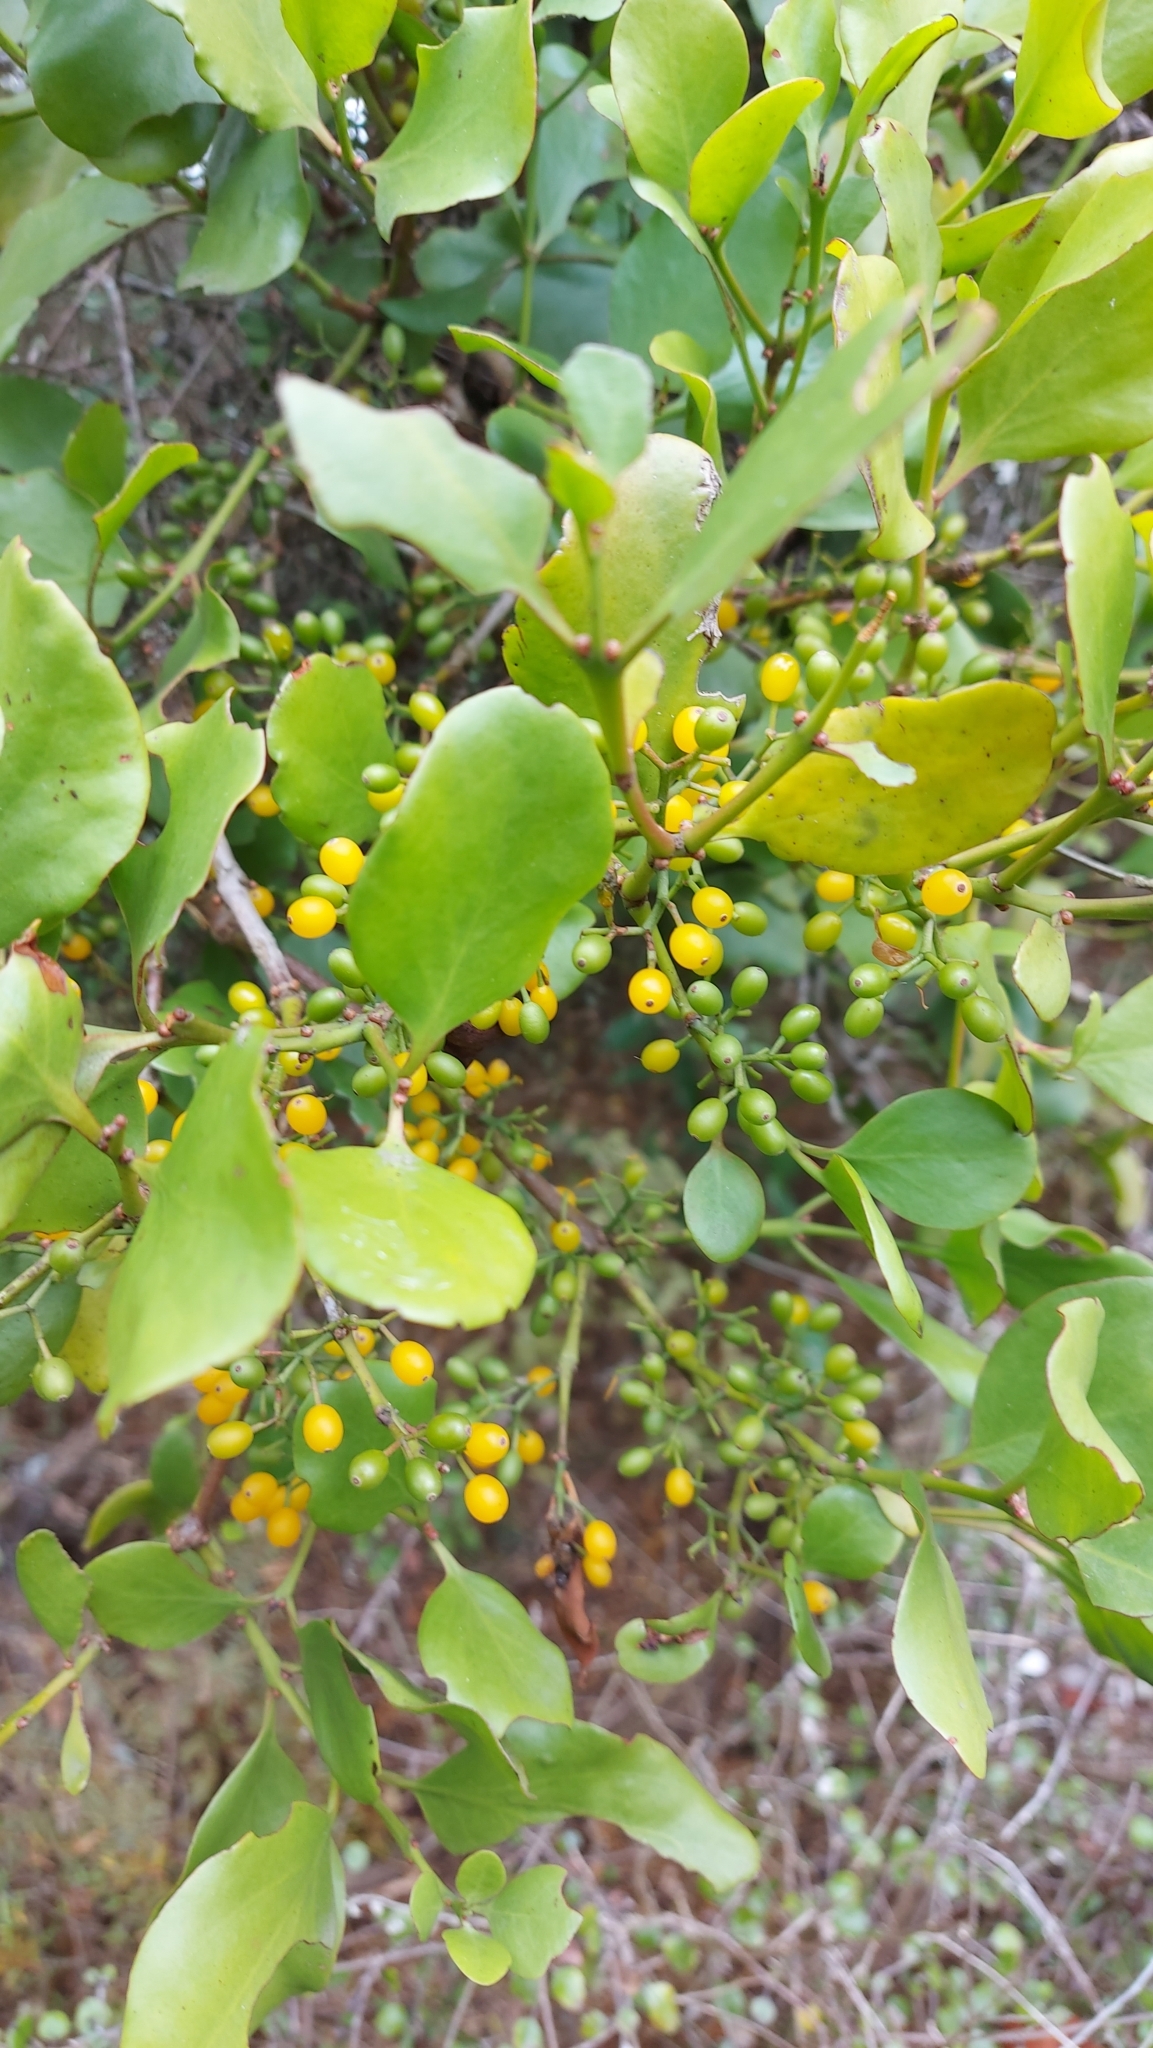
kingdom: Plantae
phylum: Tracheophyta
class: Magnoliopsida
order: Santalales
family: Loranthaceae
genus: Ileostylus
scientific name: Ileostylus micranthus
